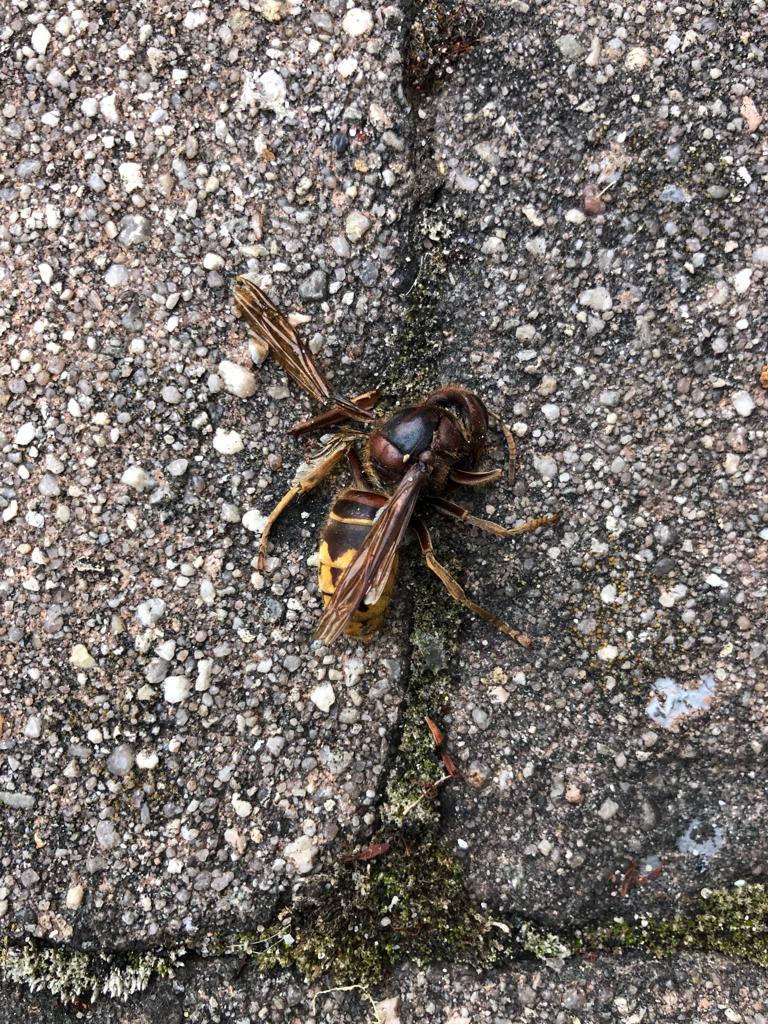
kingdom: Animalia
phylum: Arthropoda
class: Insecta
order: Hymenoptera
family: Vespidae
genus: Vespa
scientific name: Vespa crabro
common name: Hornet
